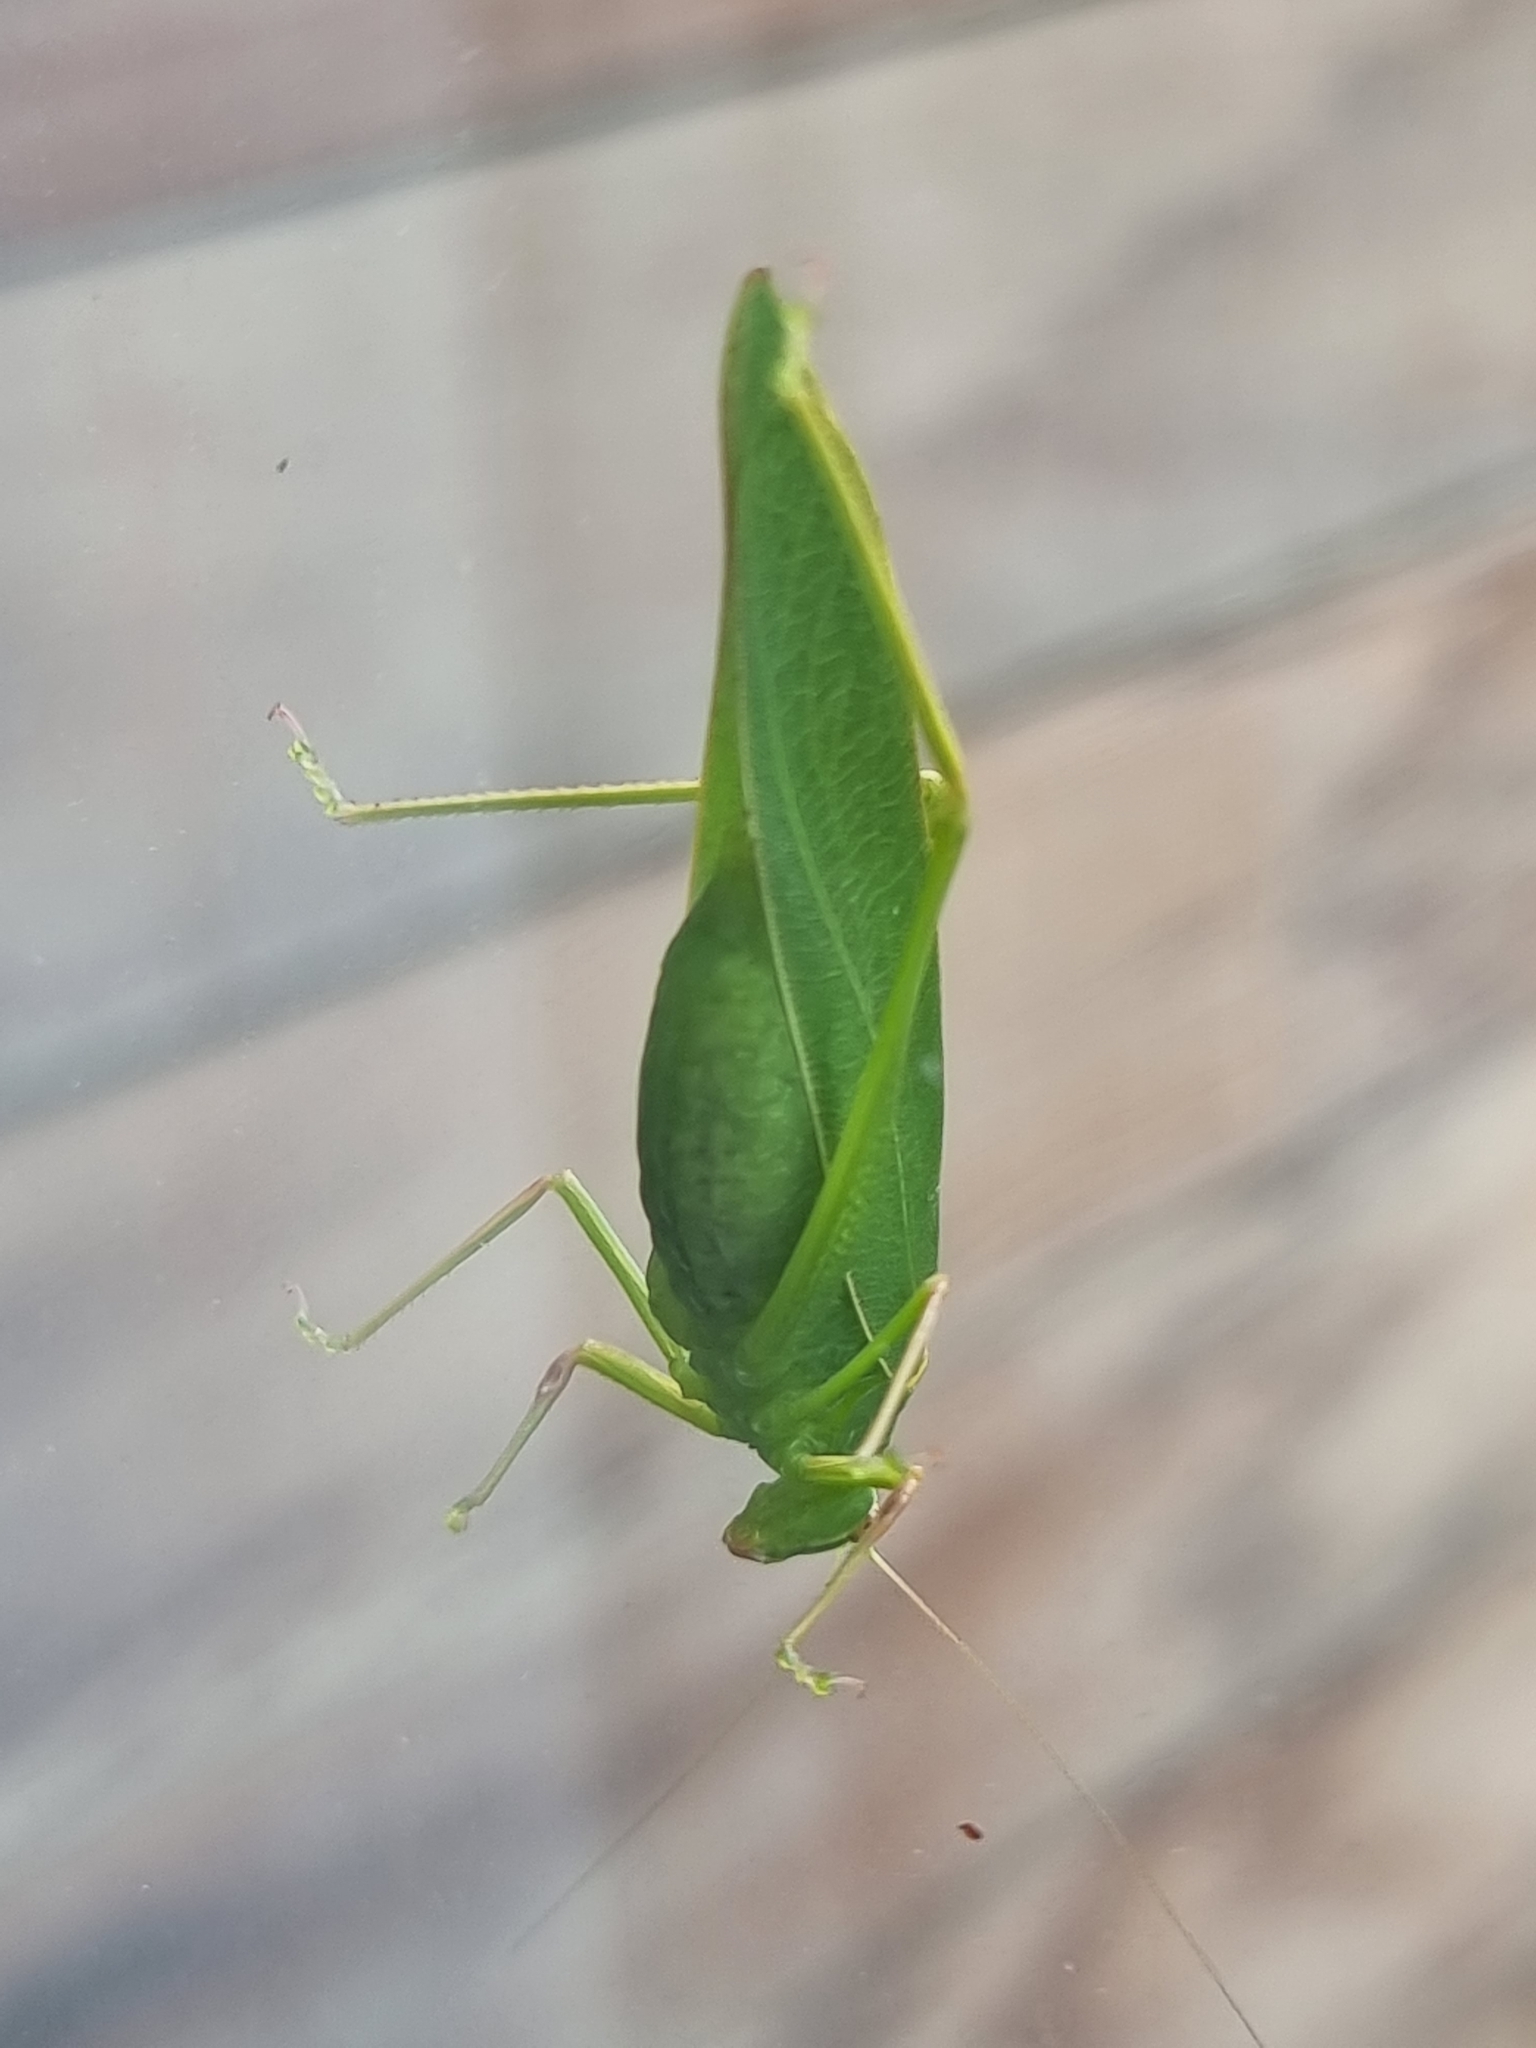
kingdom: Animalia
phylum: Arthropoda
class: Insecta
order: Orthoptera
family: Tettigoniidae
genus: Caedicia
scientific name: Caedicia simplex
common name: Common garden katydid
